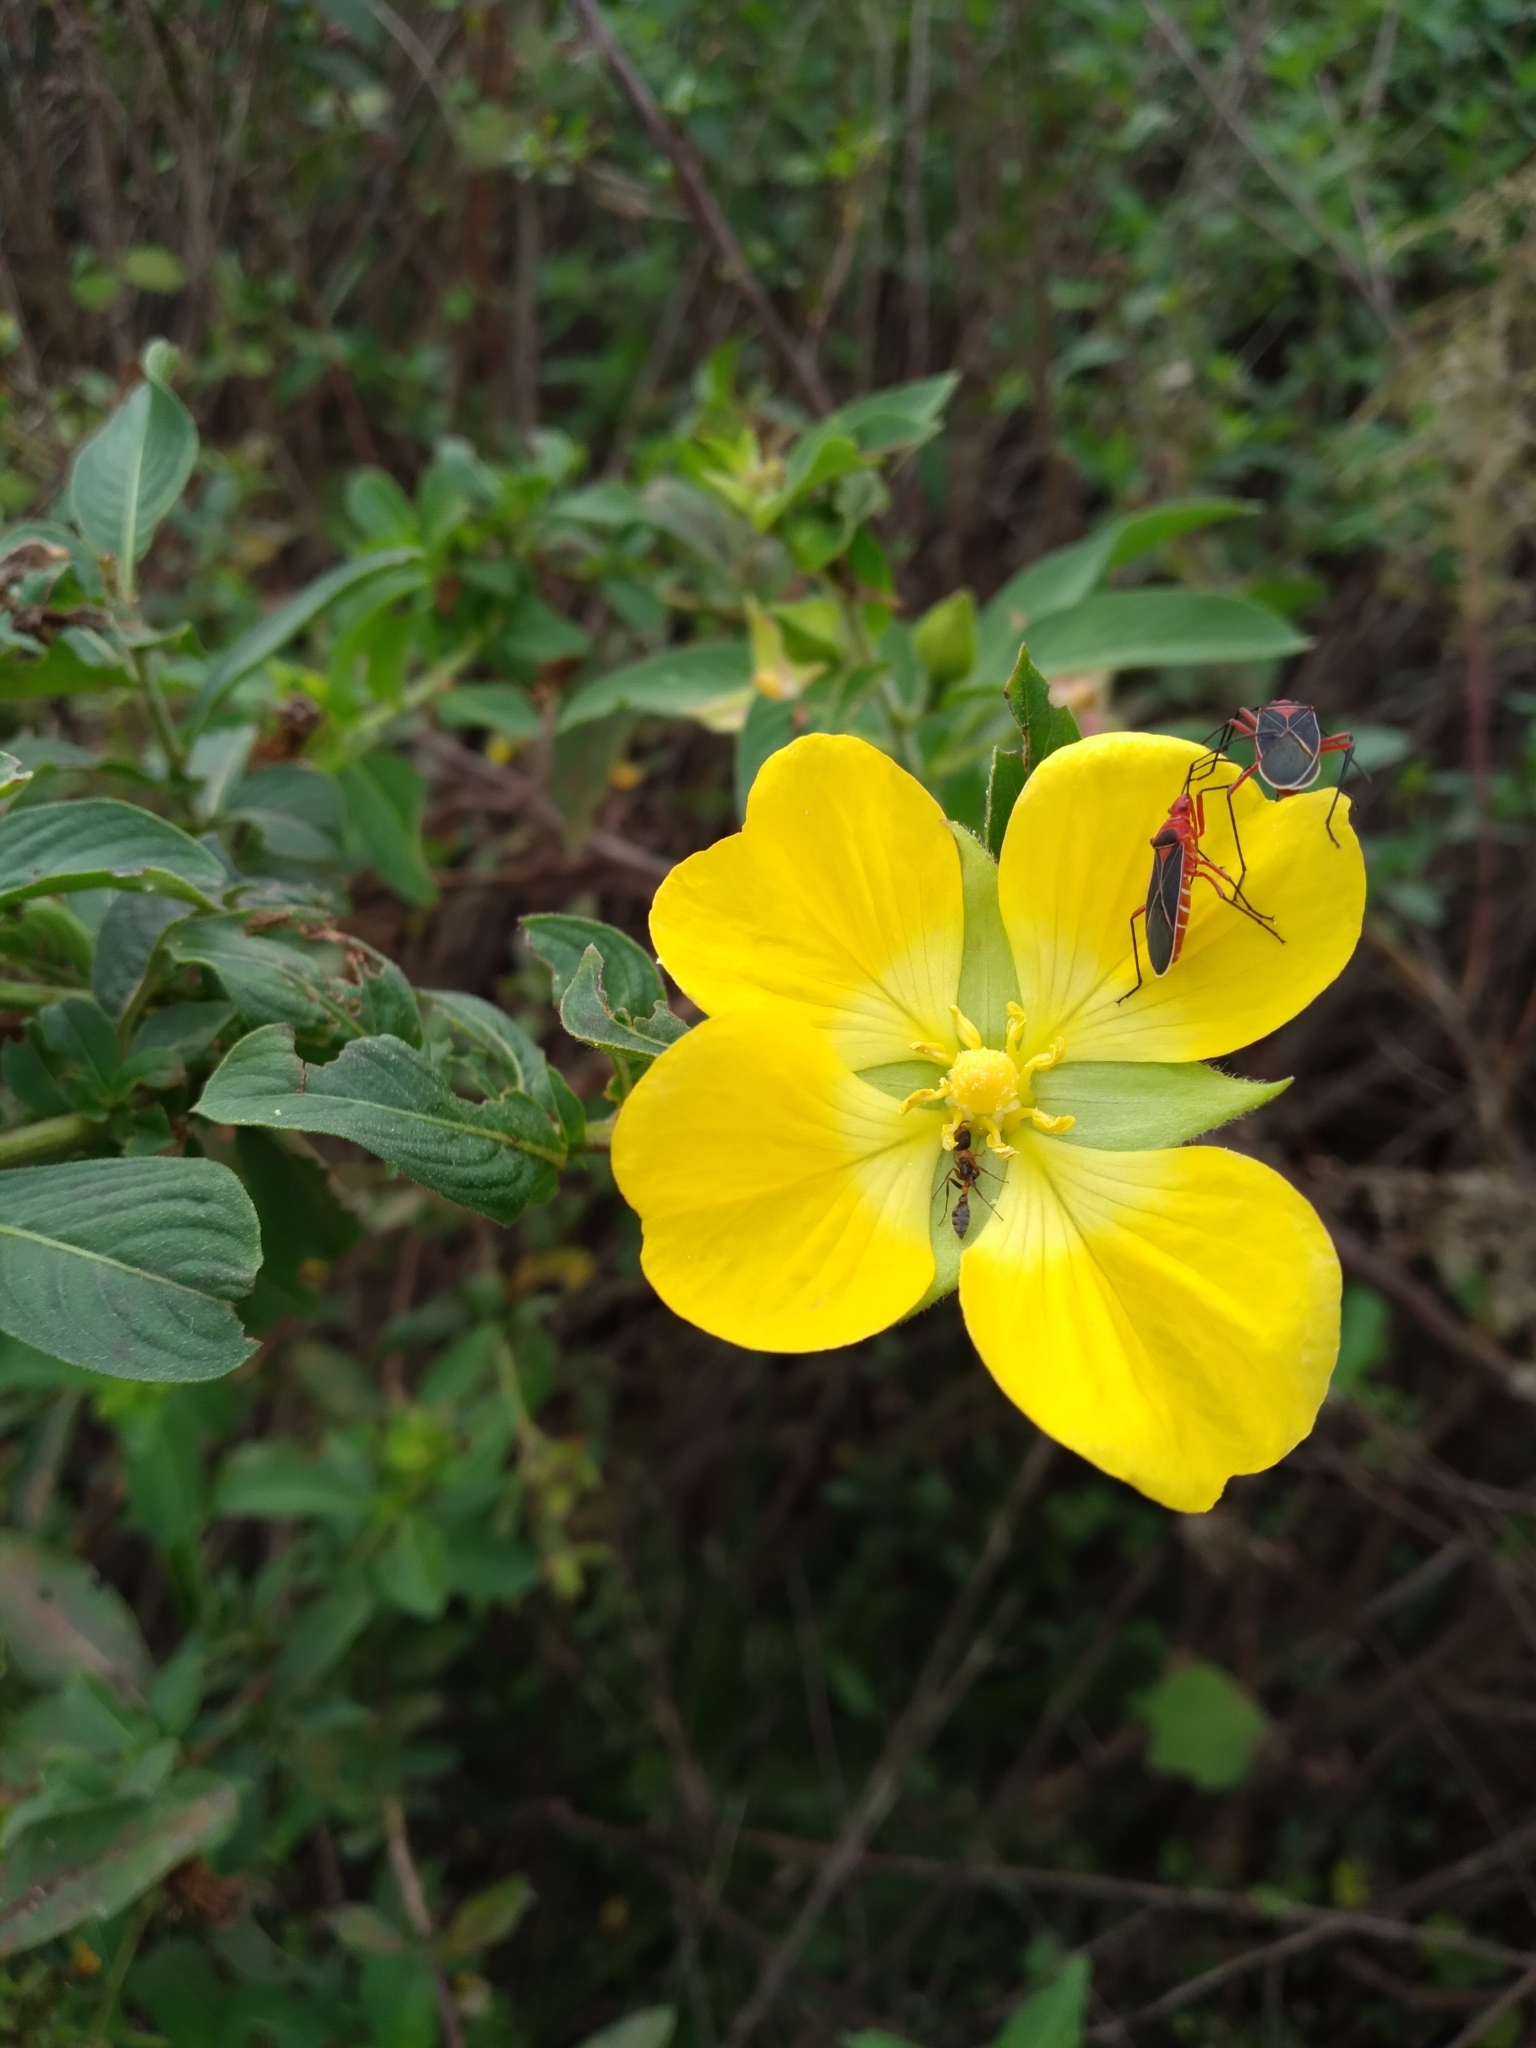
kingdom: Plantae
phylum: Tracheophyta
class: Magnoliopsida
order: Myrtales
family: Onagraceae
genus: Ludwigia
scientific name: Ludwigia peruviana
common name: Peruvian primrose-willow
